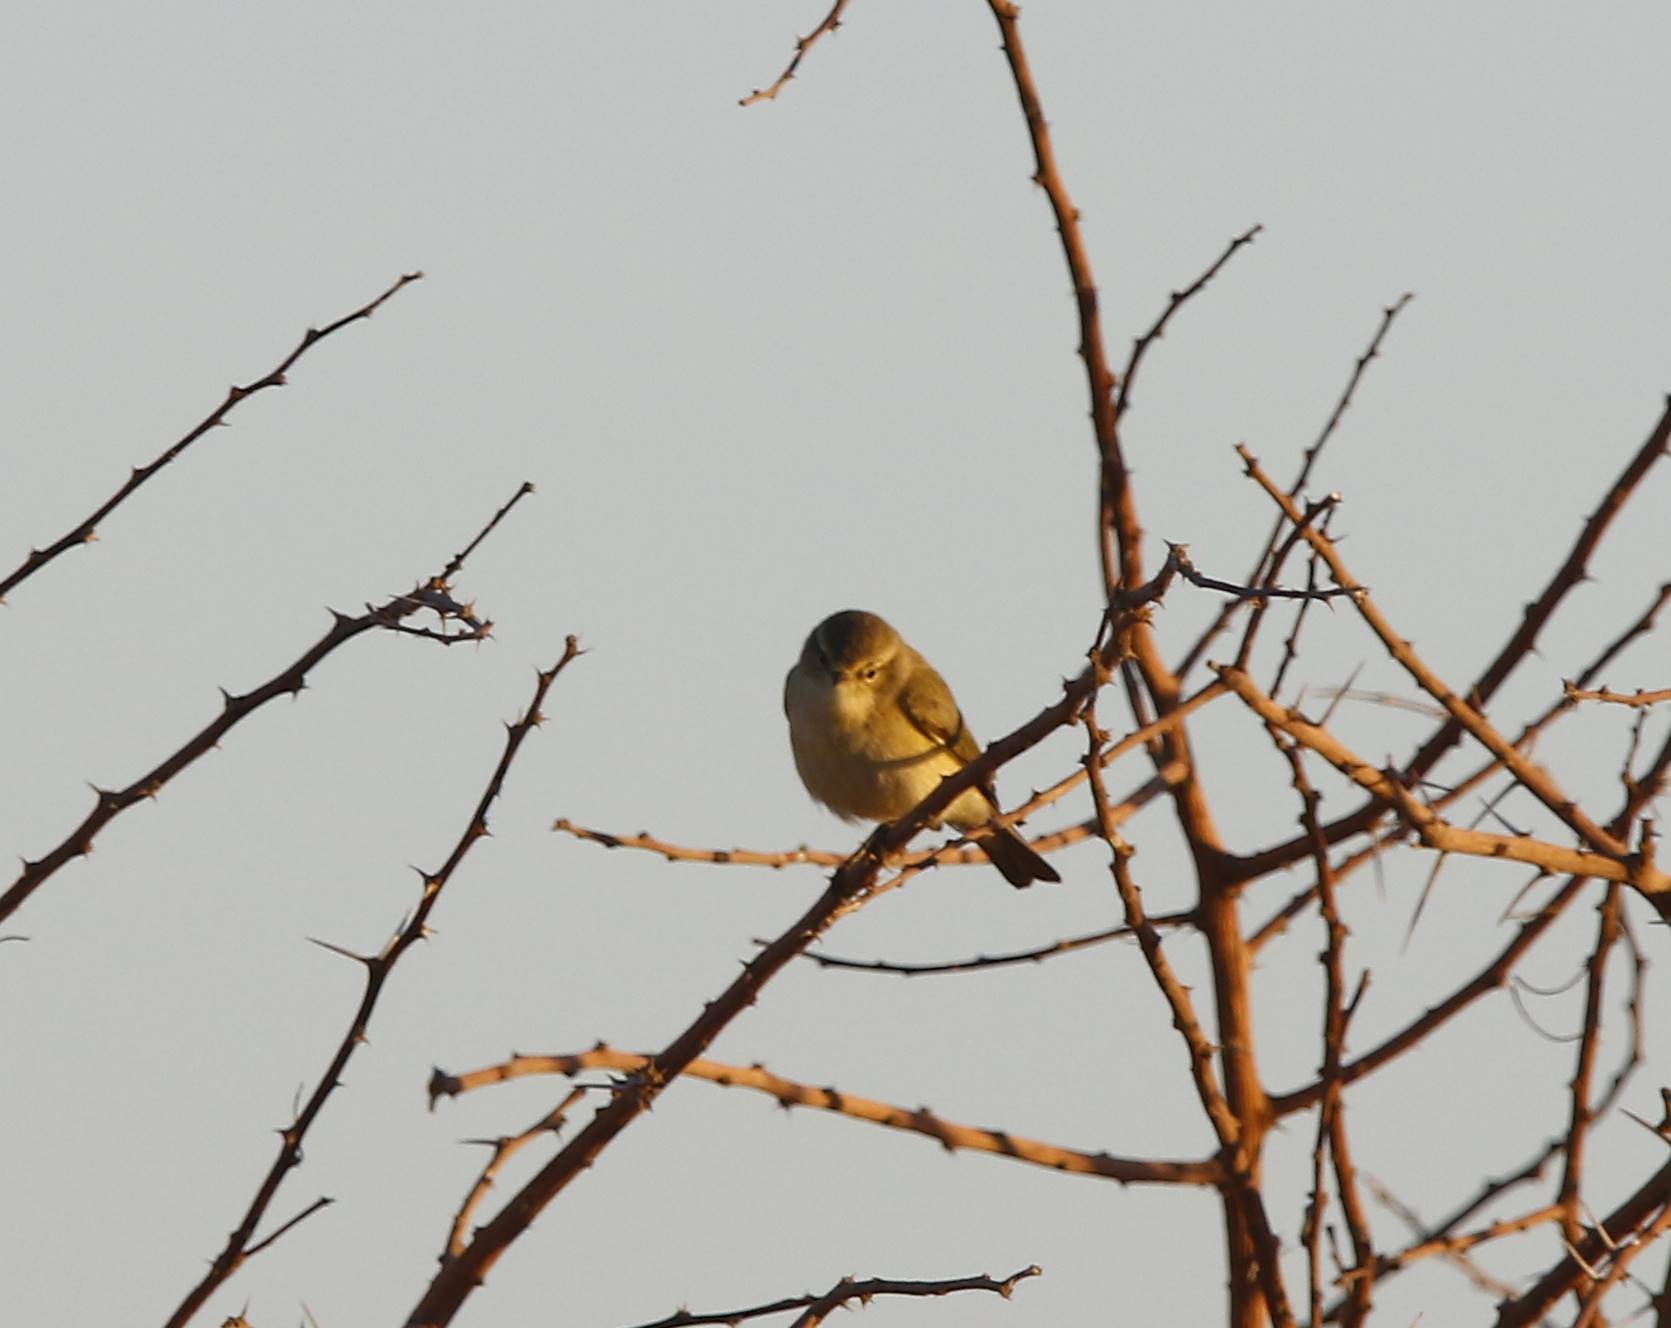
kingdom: Animalia
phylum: Chordata
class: Aves
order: Passeriformes
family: Phylloscopidae
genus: Phylloscopus
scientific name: Phylloscopus collybita
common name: Common chiffchaff
